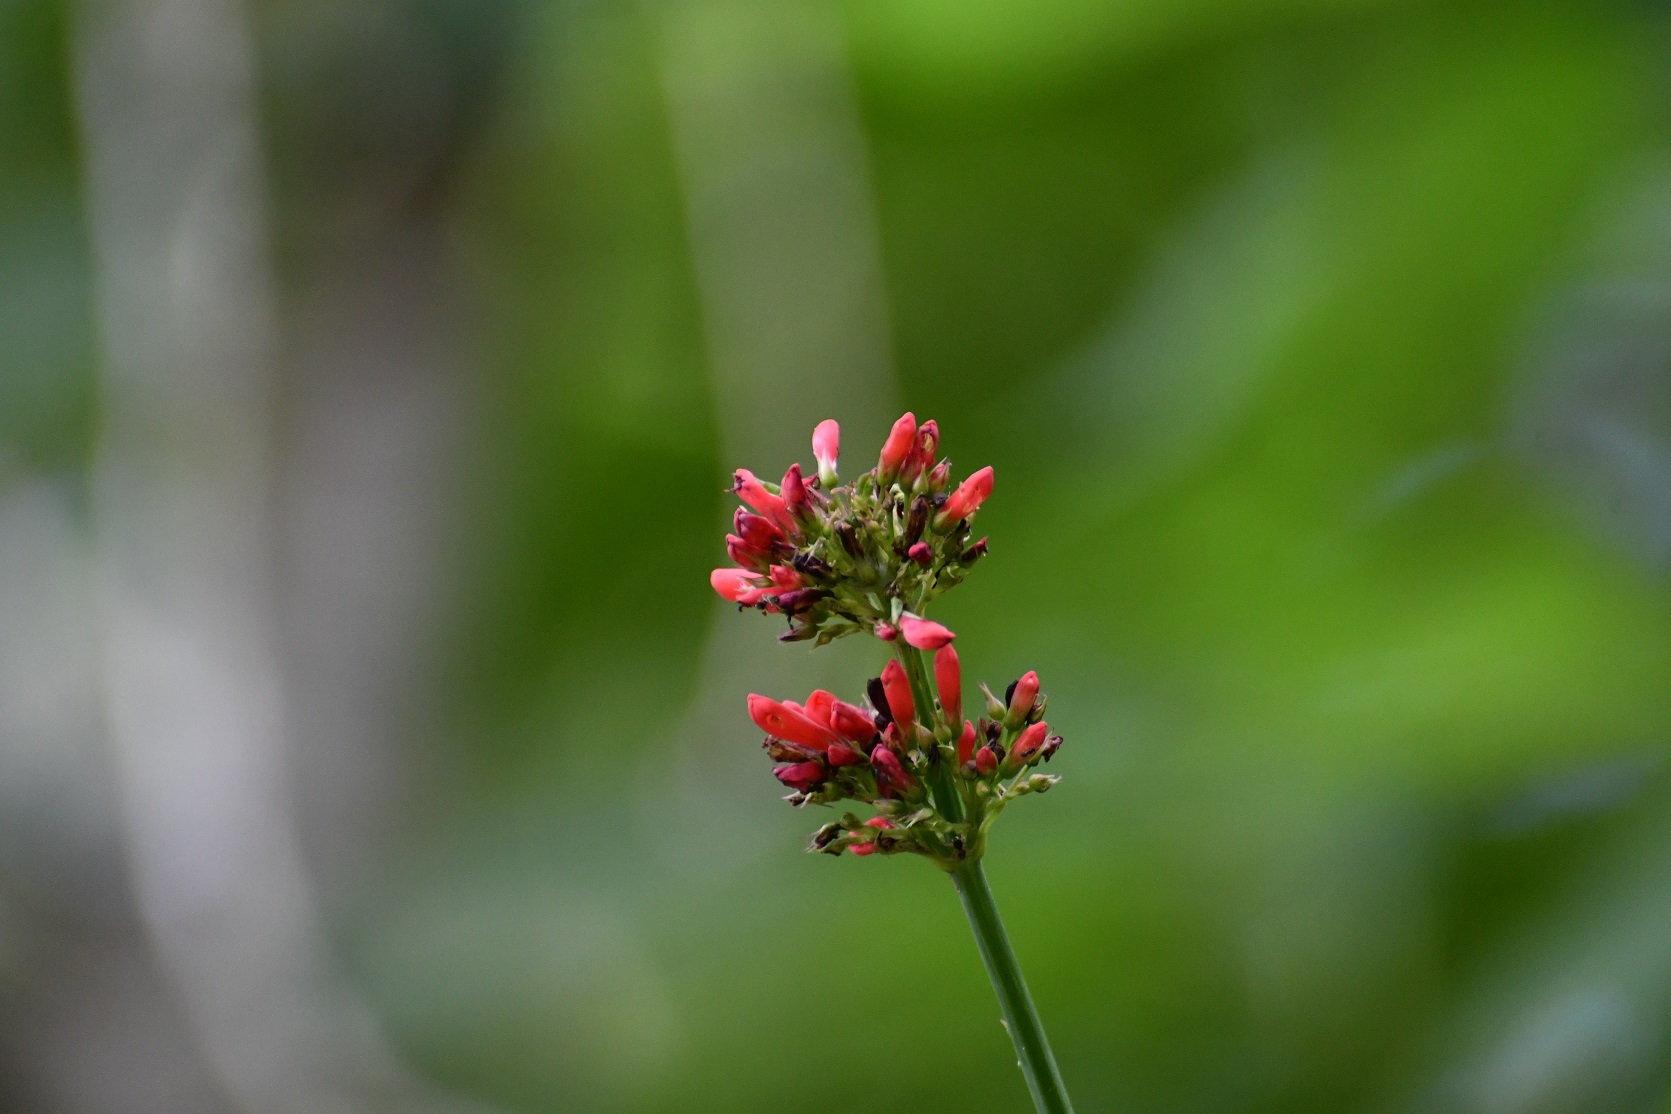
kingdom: Plantae
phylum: Tracheophyta
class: Magnoliopsida
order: Lamiales
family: Plantaginaceae
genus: Russelia
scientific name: Russelia verticillata
